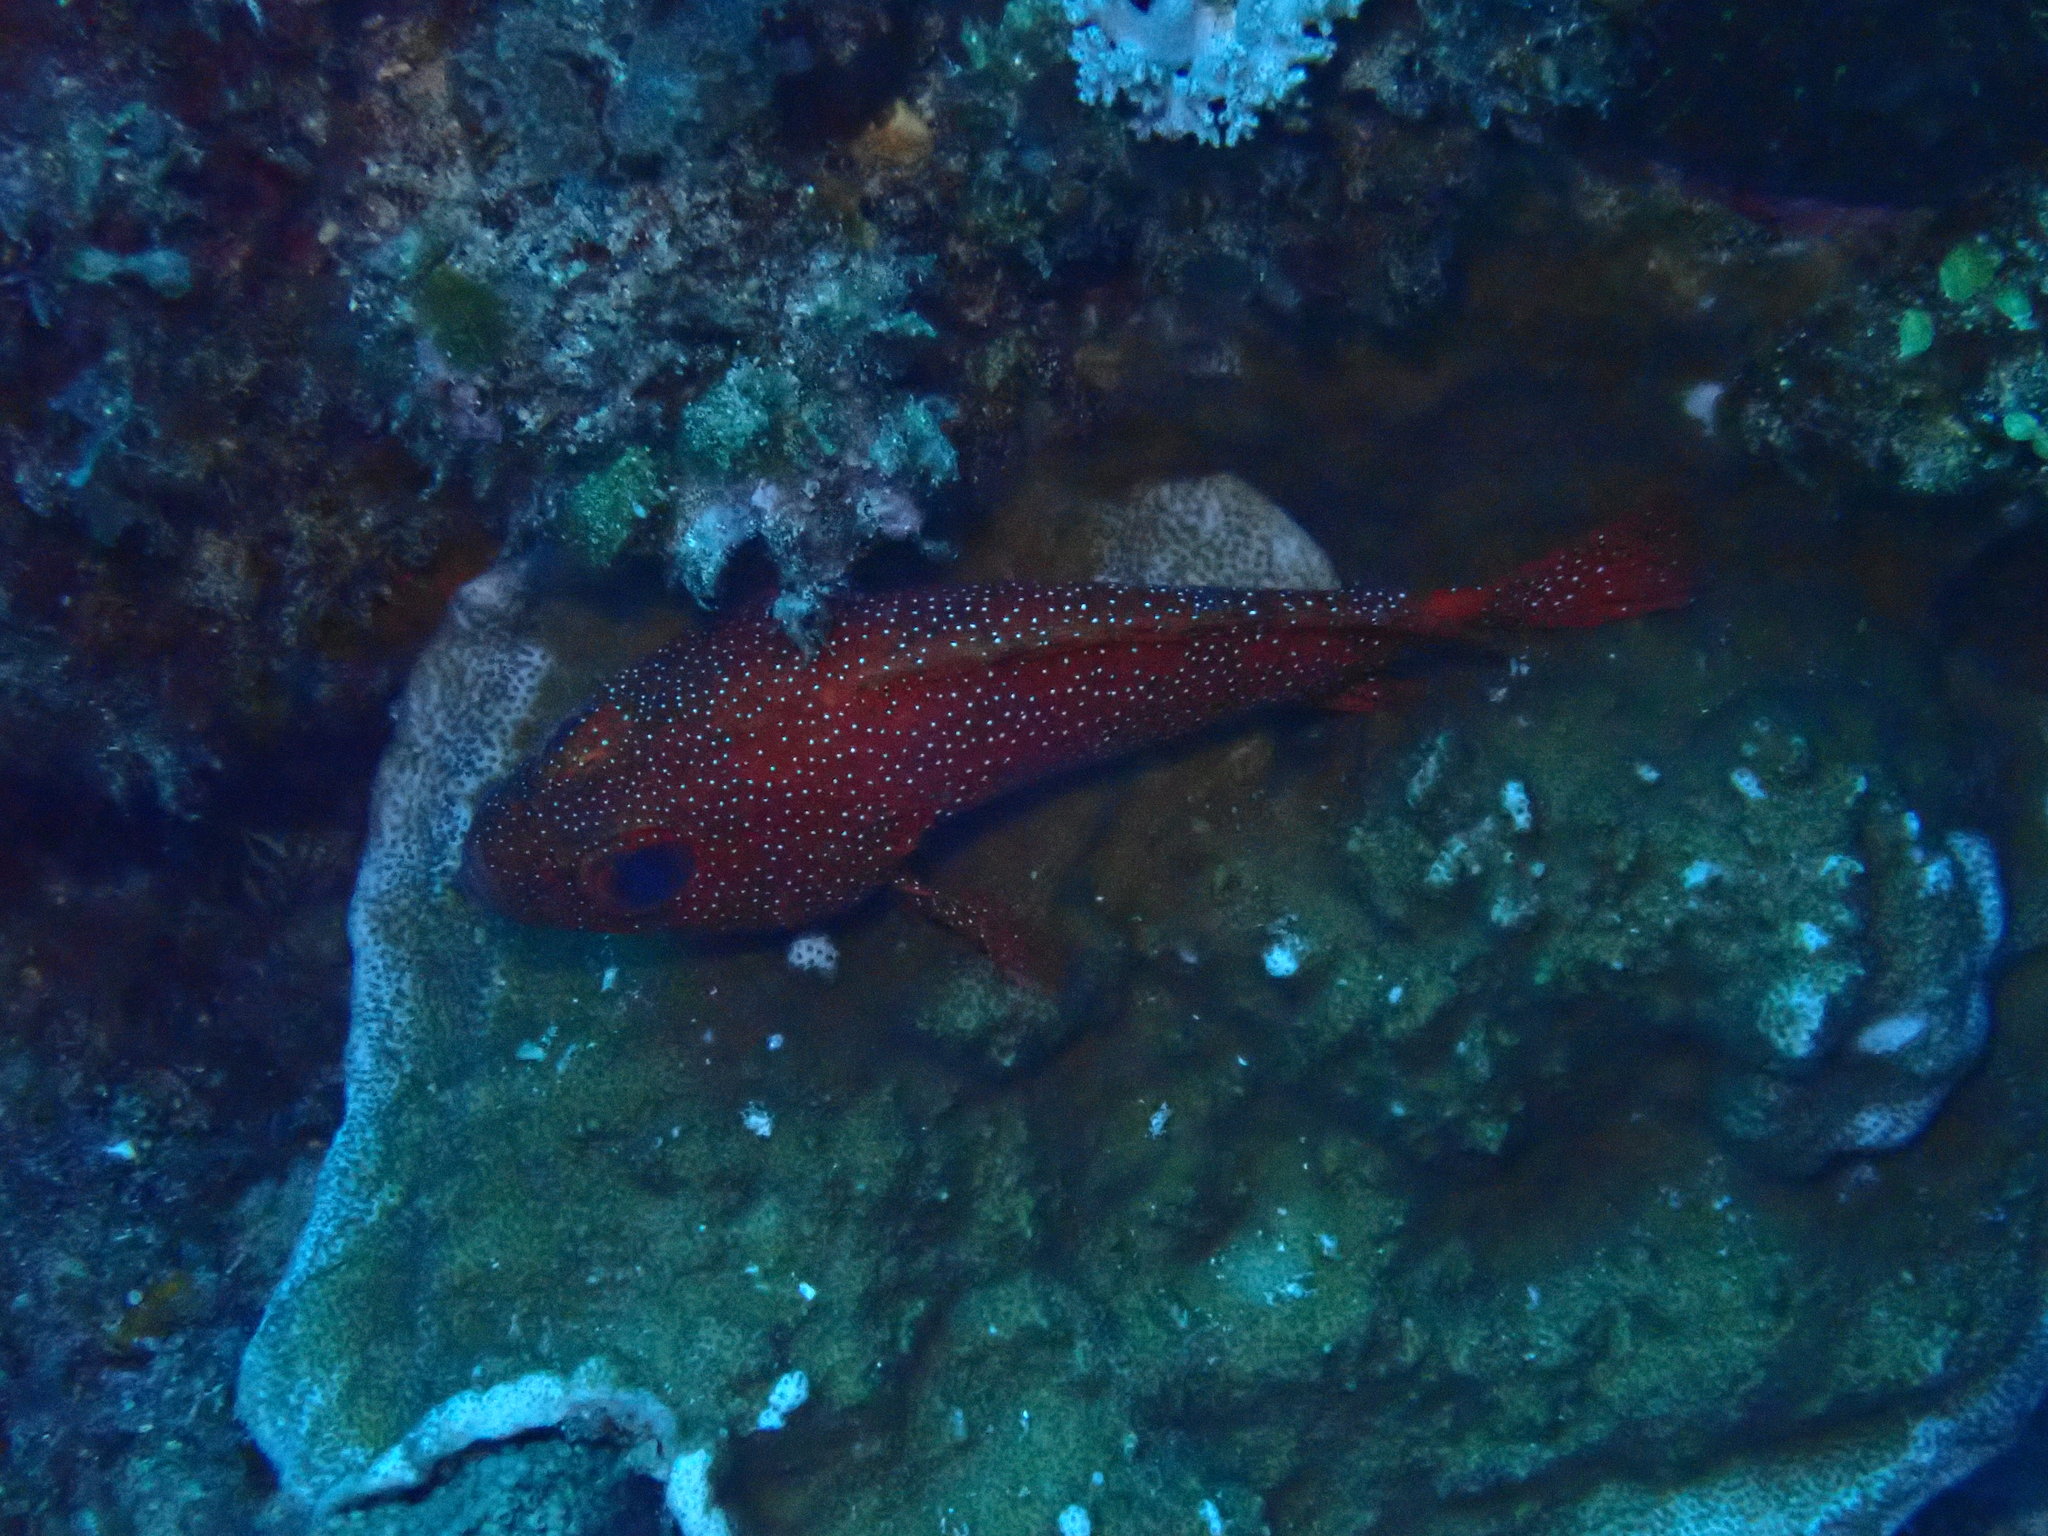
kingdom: Animalia
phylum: Chordata
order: Perciformes
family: Serranidae
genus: Trachypoma
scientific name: Trachypoma macracanthus
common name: Toadstool grouper
